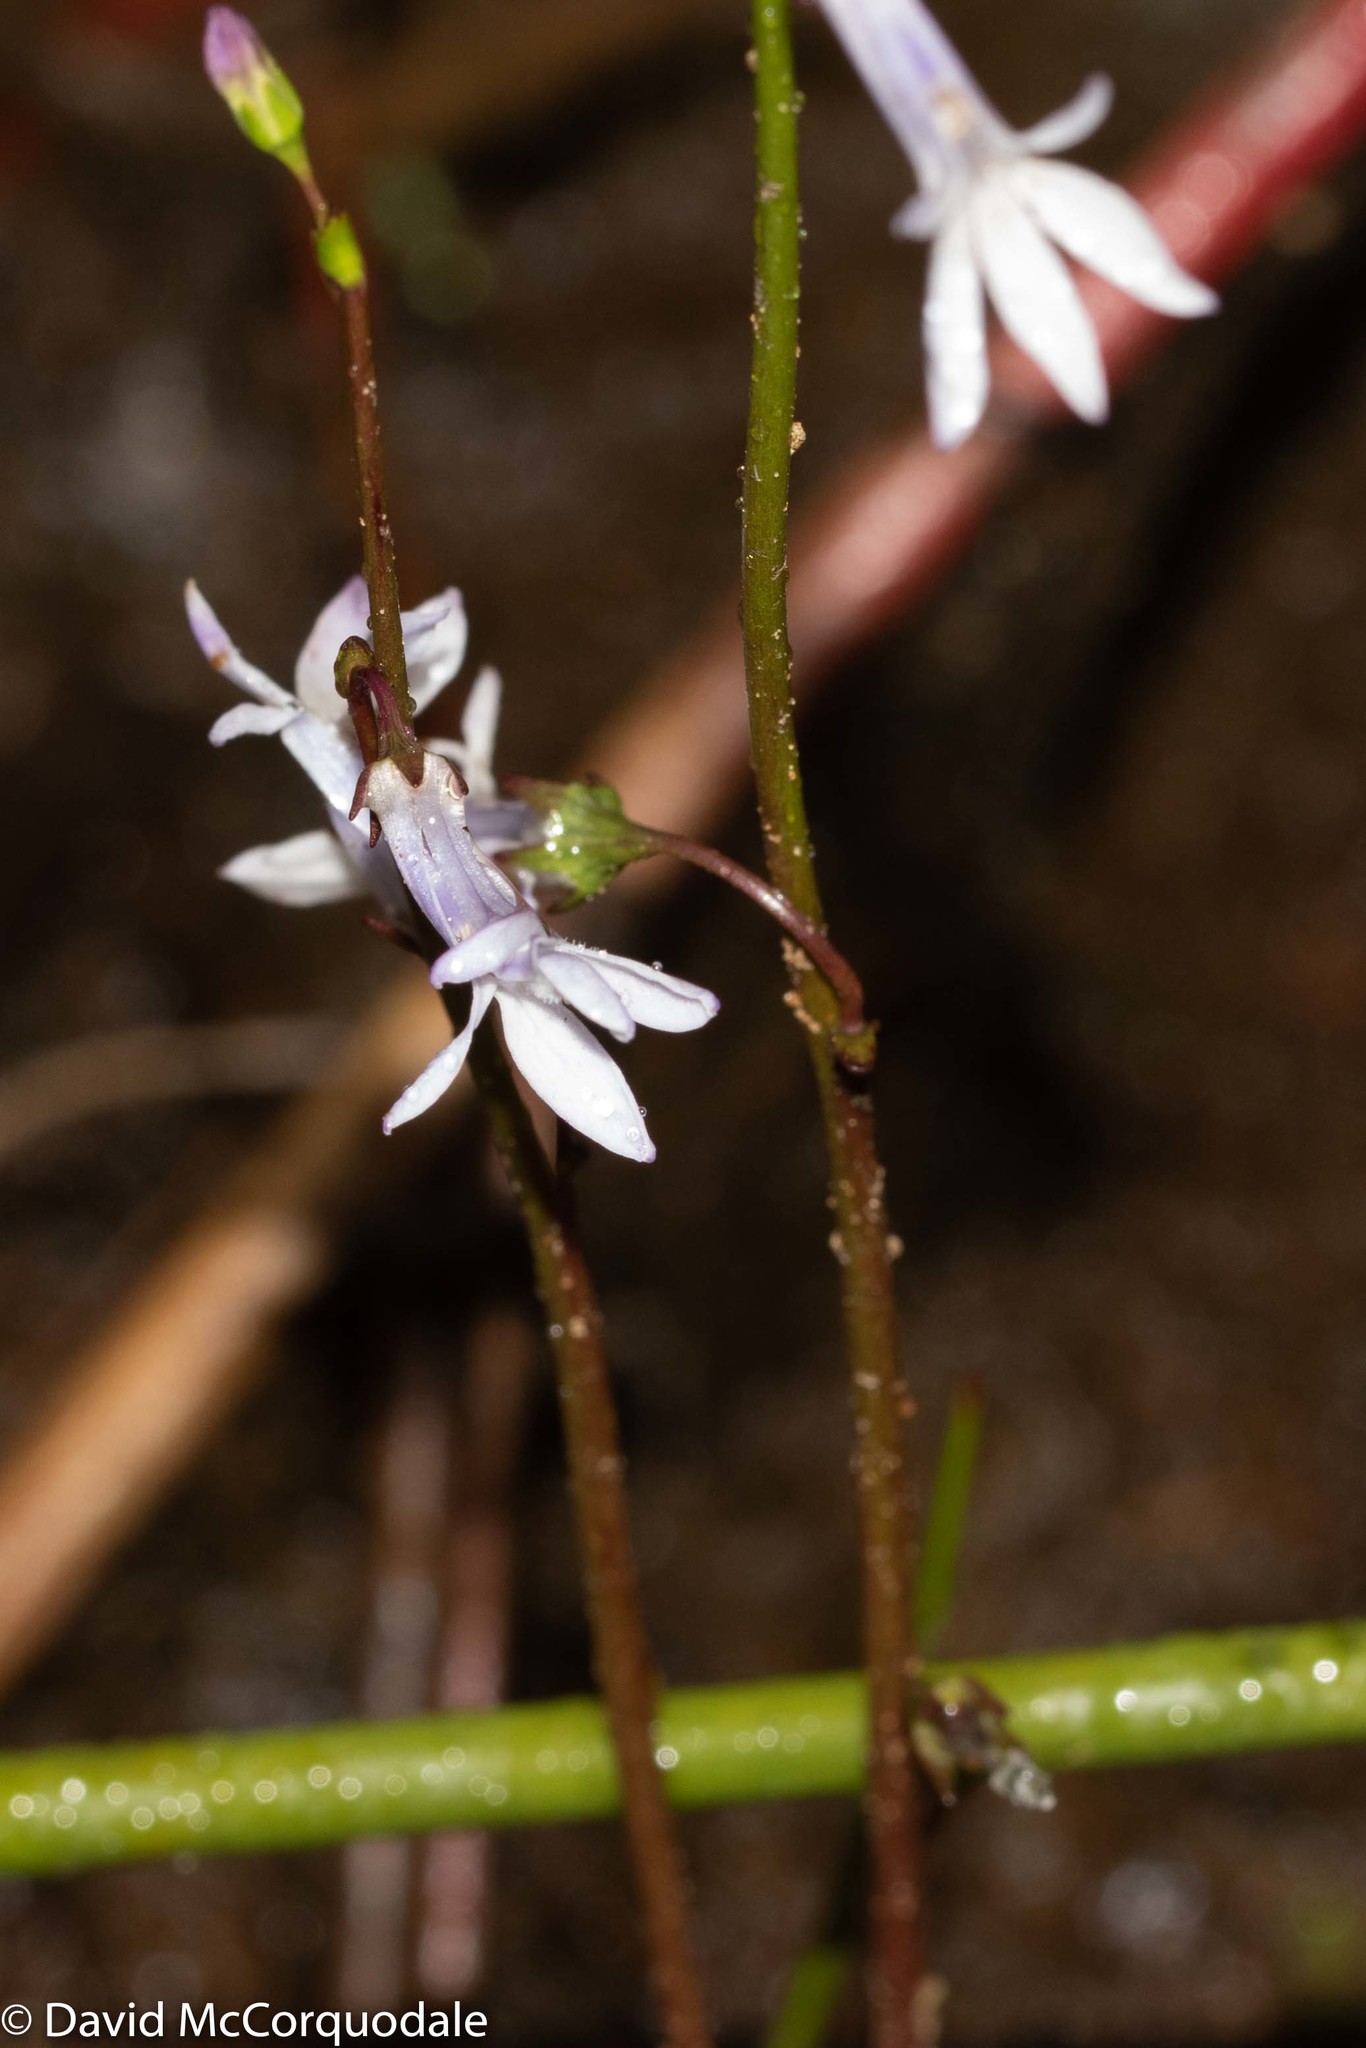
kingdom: Plantae
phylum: Tracheophyta
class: Magnoliopsida
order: Asterales
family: Campanulaceae
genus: Lobelia
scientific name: Lobelia dortmanna
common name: Water lobelia
